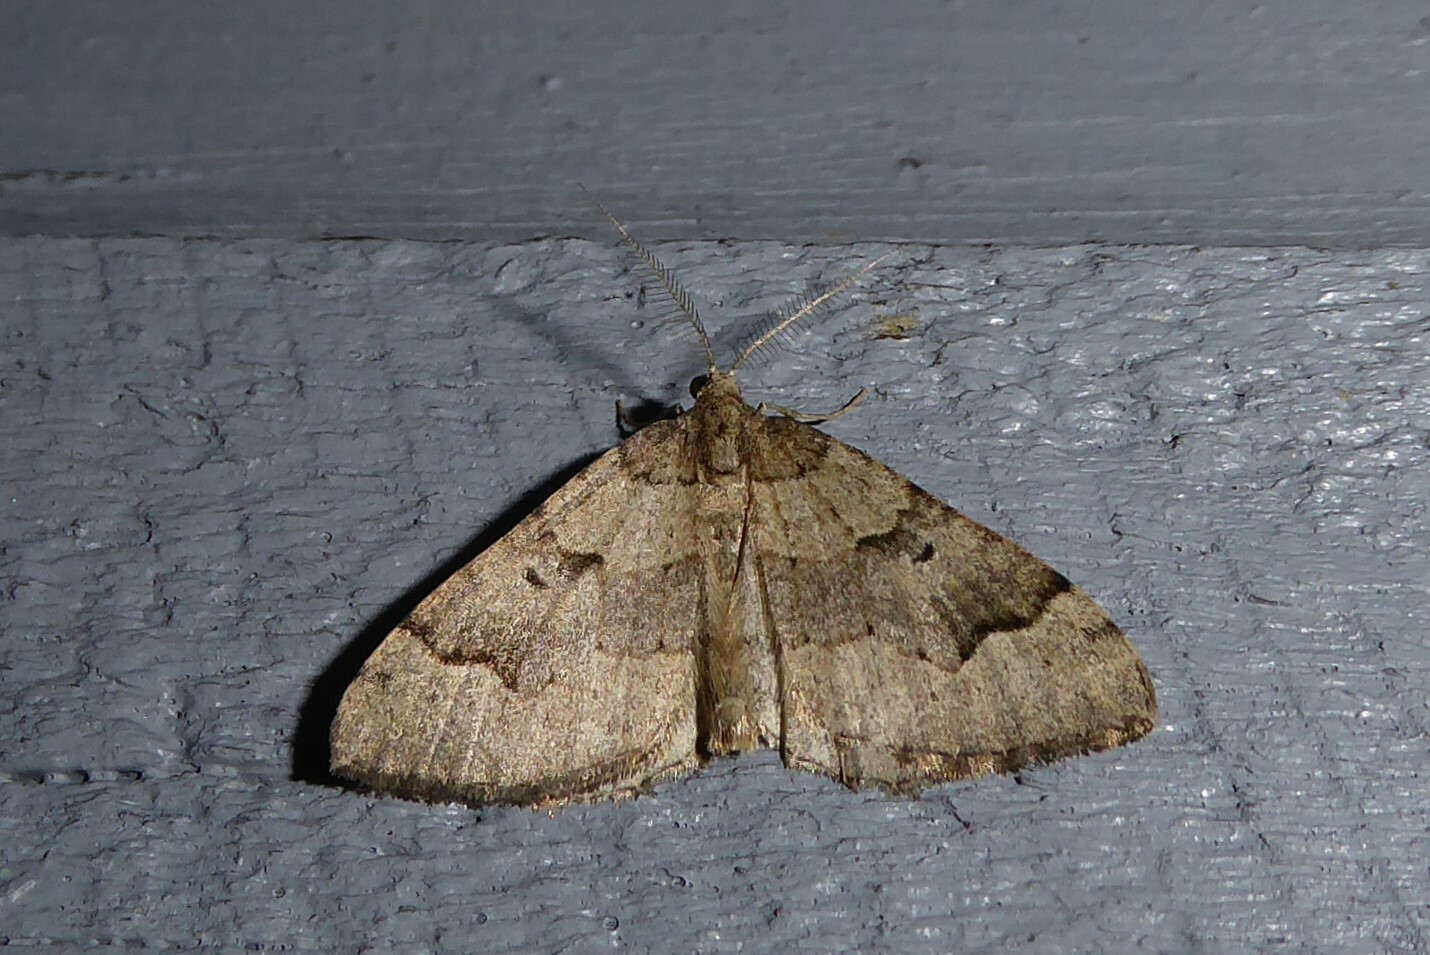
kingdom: Animalia
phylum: Arthropoda
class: Insecta
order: Lepidoptera
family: Geometridae
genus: Epyaxa
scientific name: Epyaxa rosearia
